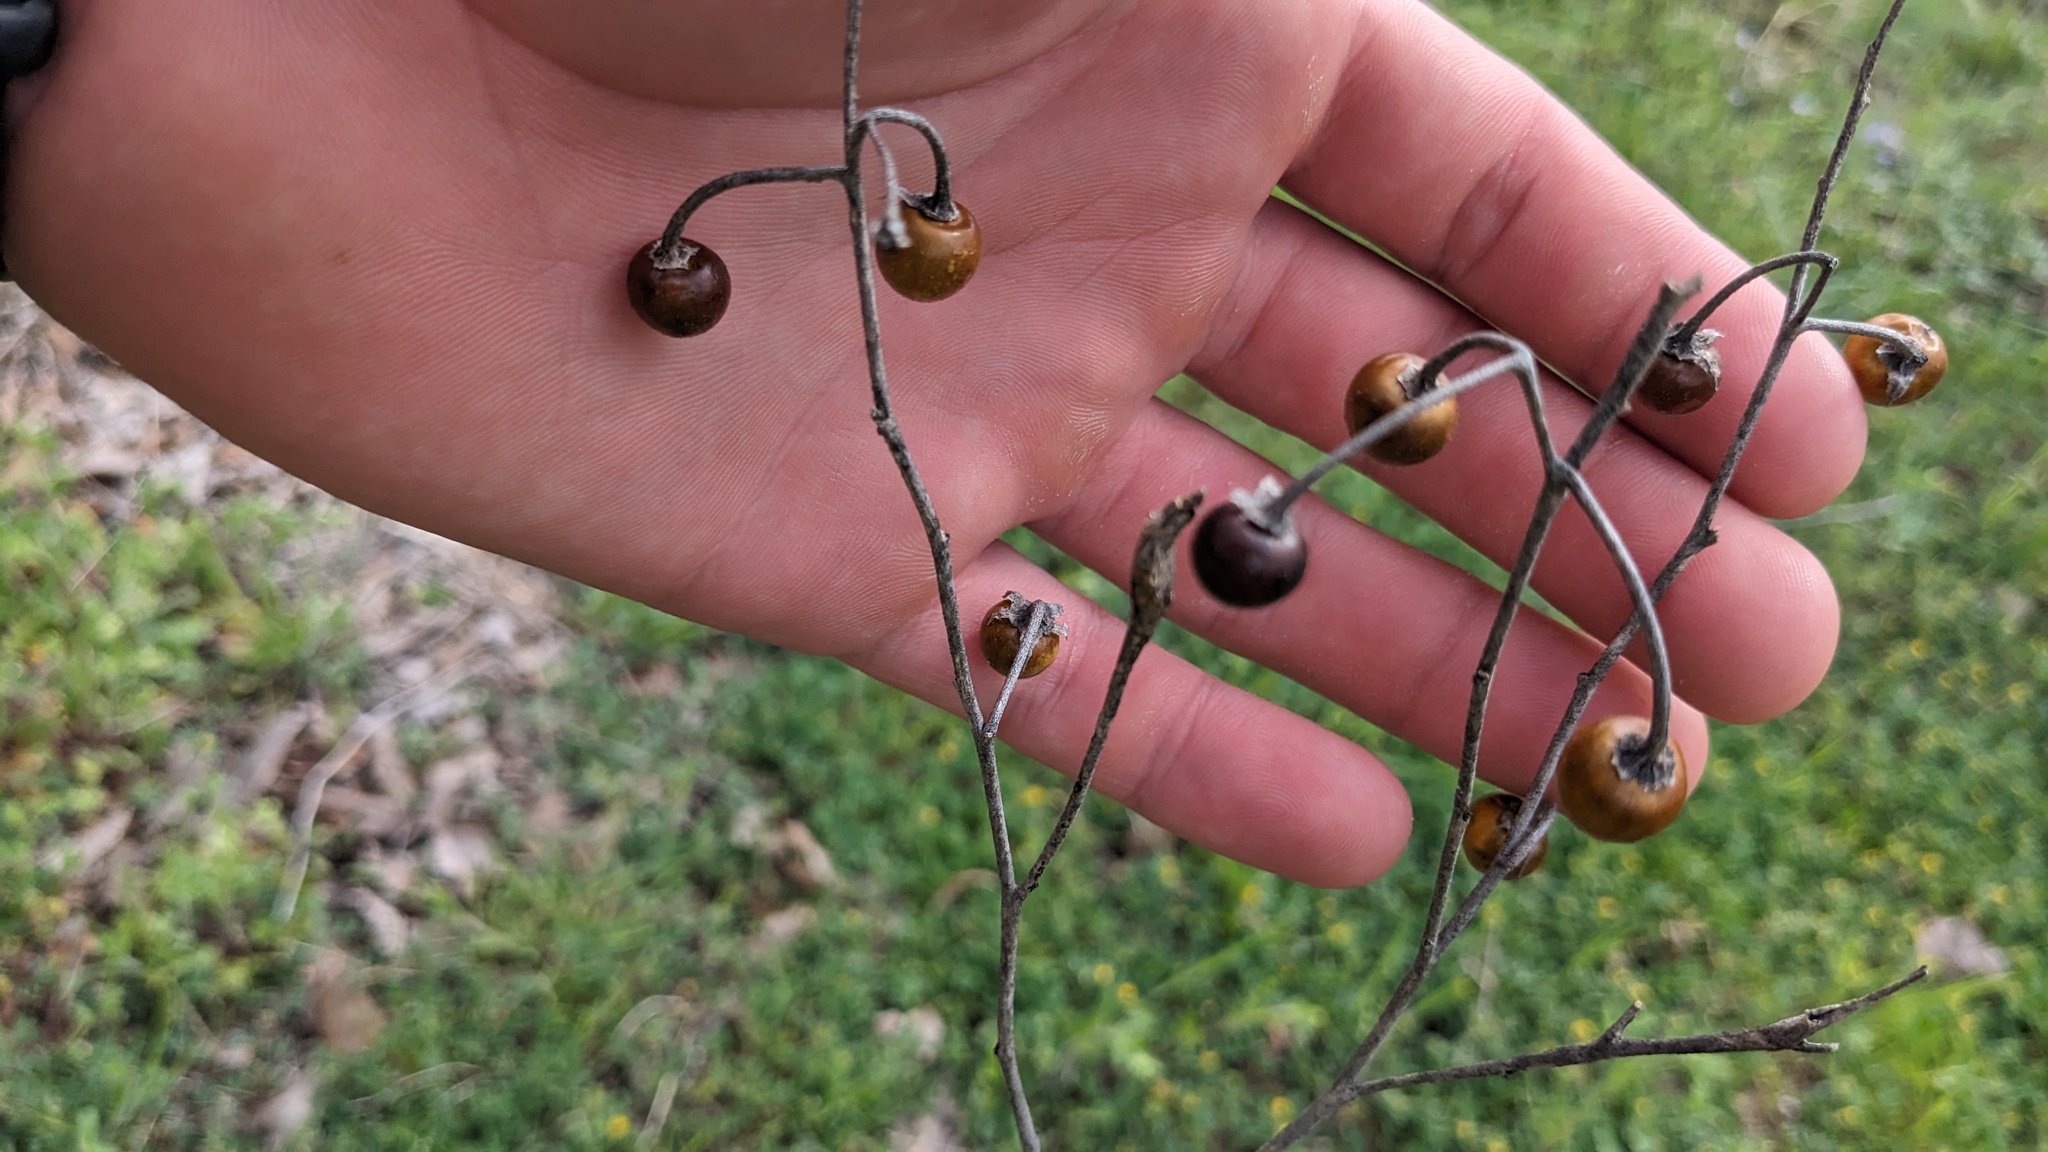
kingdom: Plantae
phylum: Tracheophyta
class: Magnoliopsida
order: Solanales
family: Solanaceae
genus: Solanum
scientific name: Solanum elaeagnifolium
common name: Silverleaf nightshade
